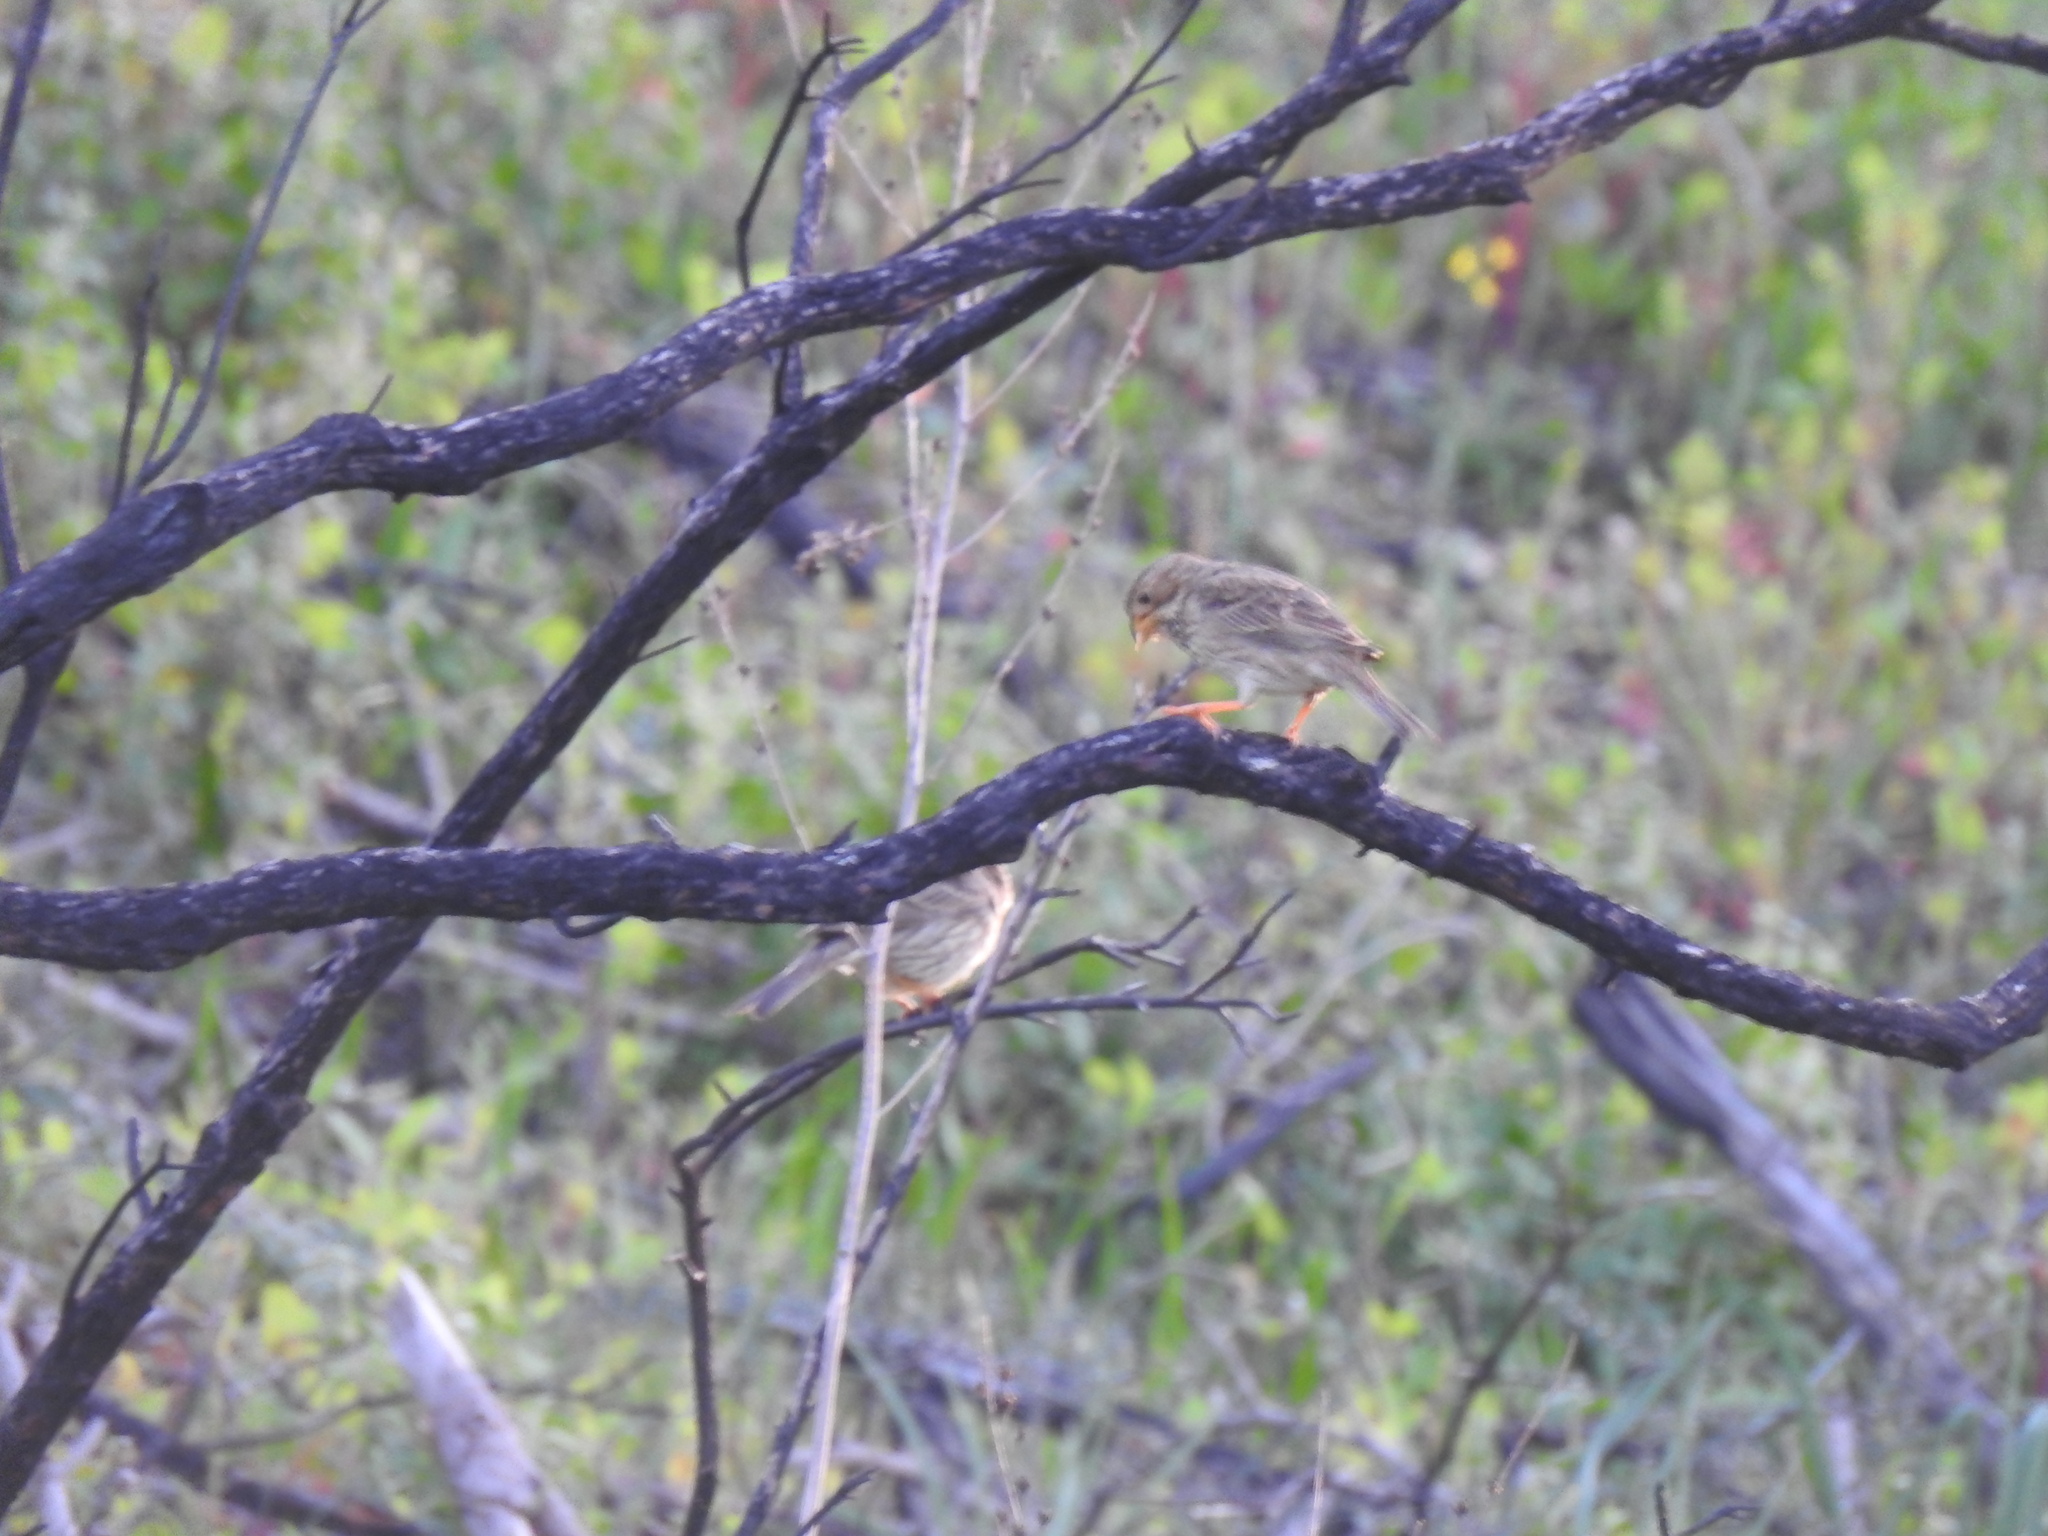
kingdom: Animalia
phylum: Chordata
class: Aves
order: Passeriformes
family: Emberizidae
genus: Emberiza
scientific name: Emberiza calandra
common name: Corn bunting
